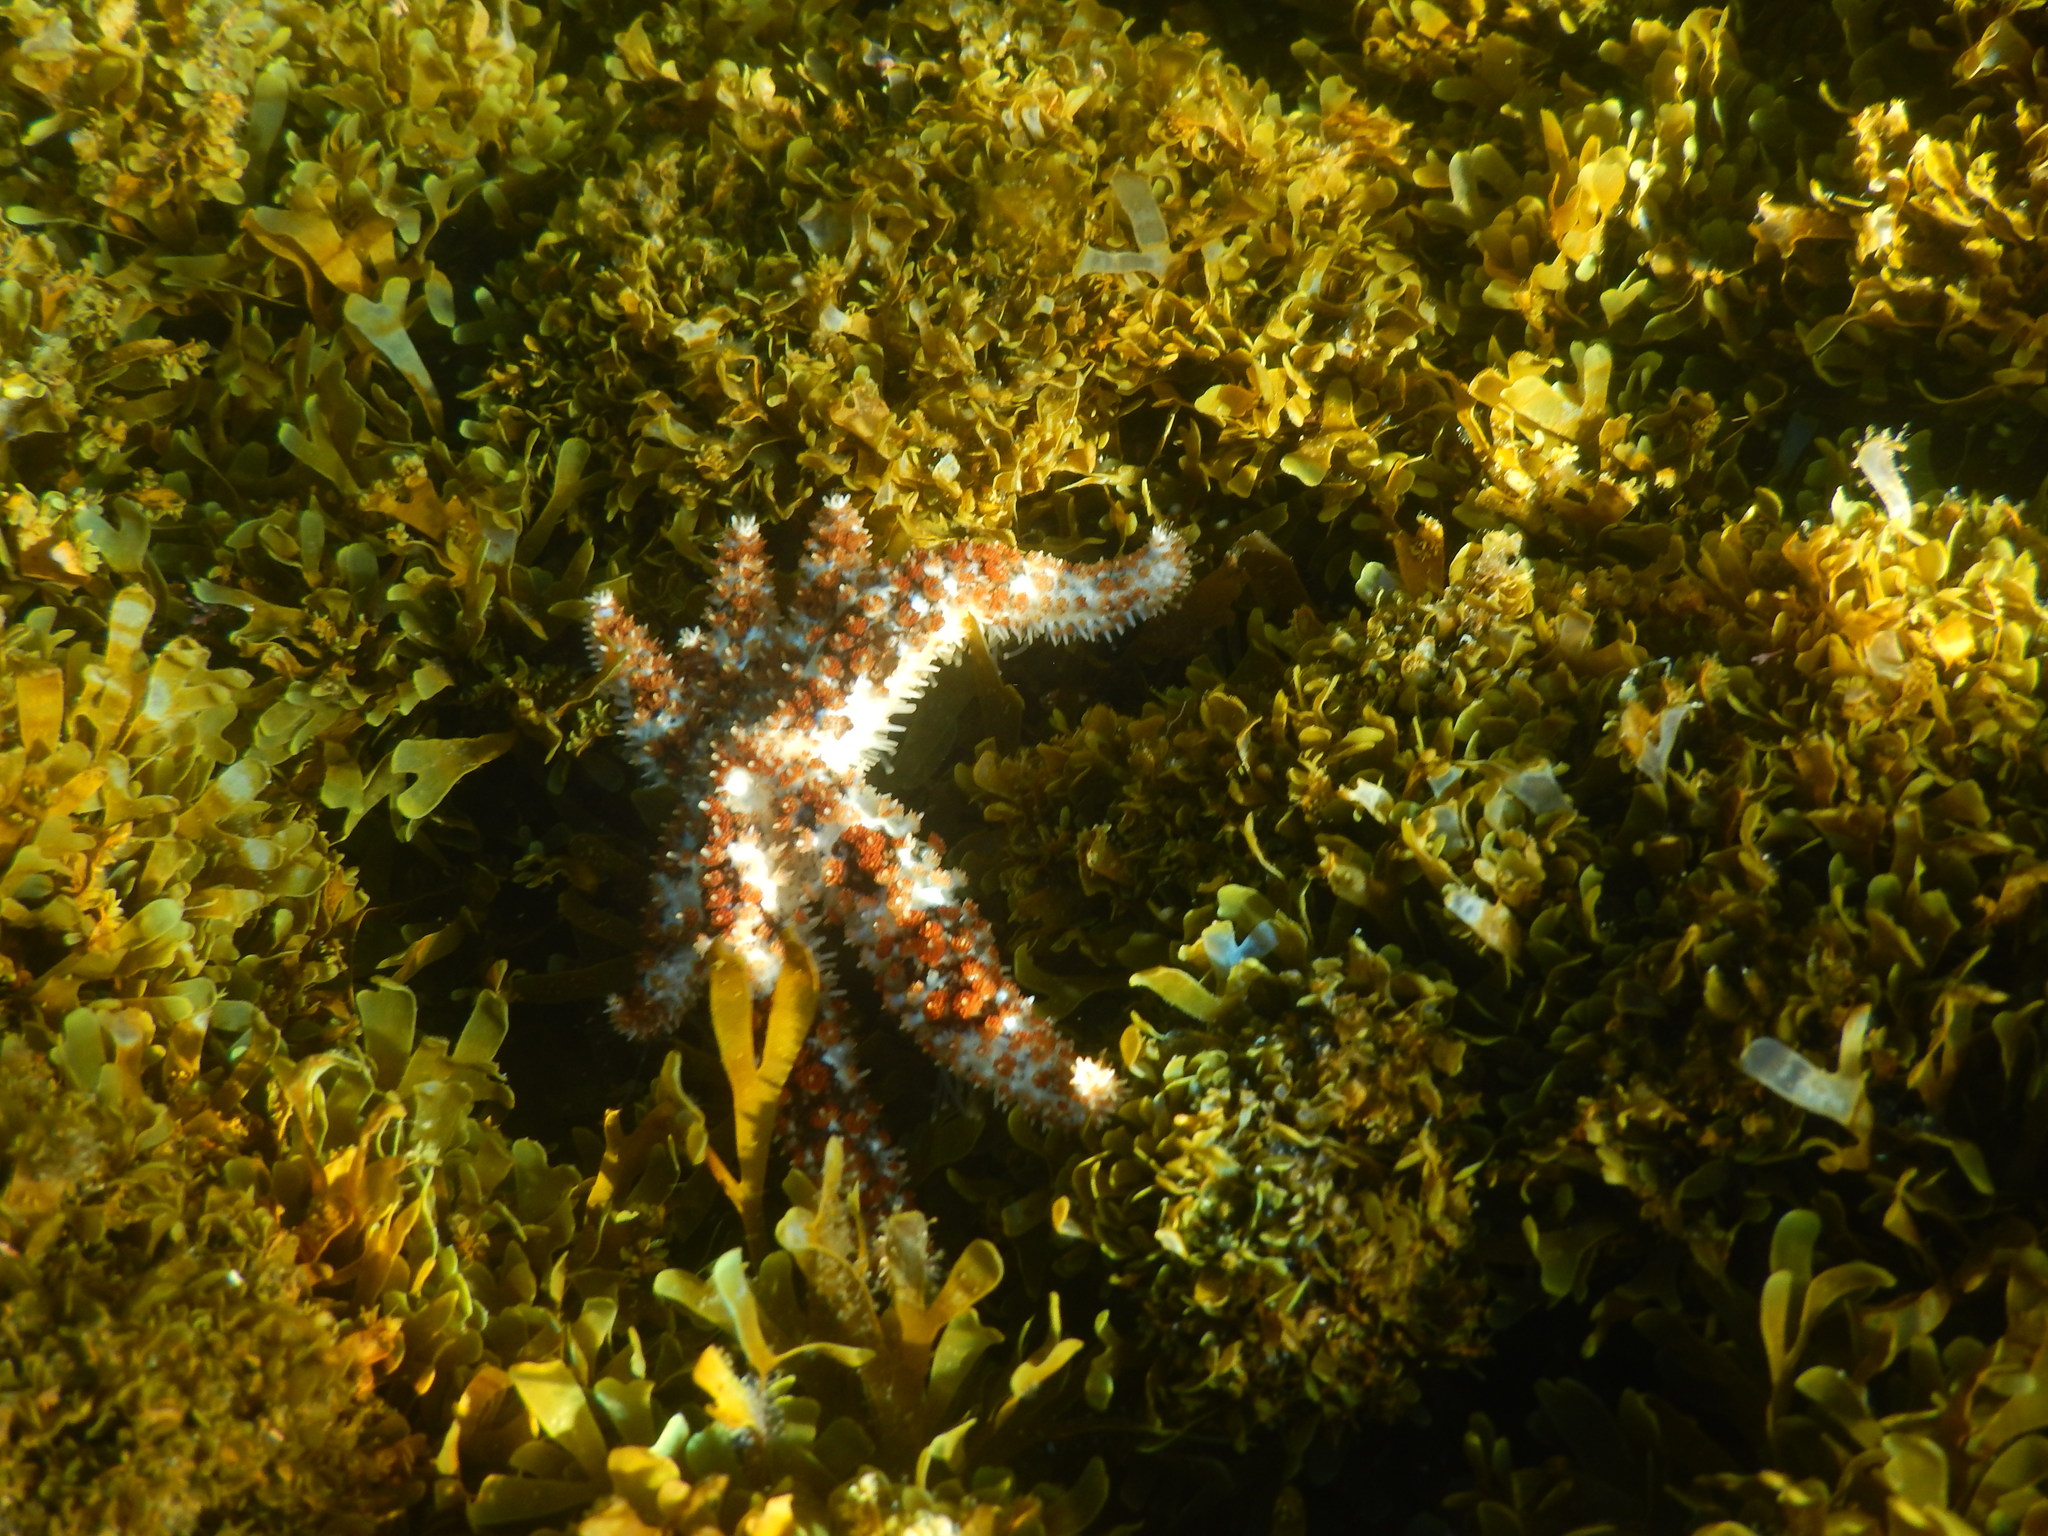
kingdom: Animalia
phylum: Echinodermata
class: Asteroidea
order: Forcipulatida
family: Asteriidae
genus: Coscinasterias
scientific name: Coscinasterias tenuispina
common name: Blue spiny starfish
